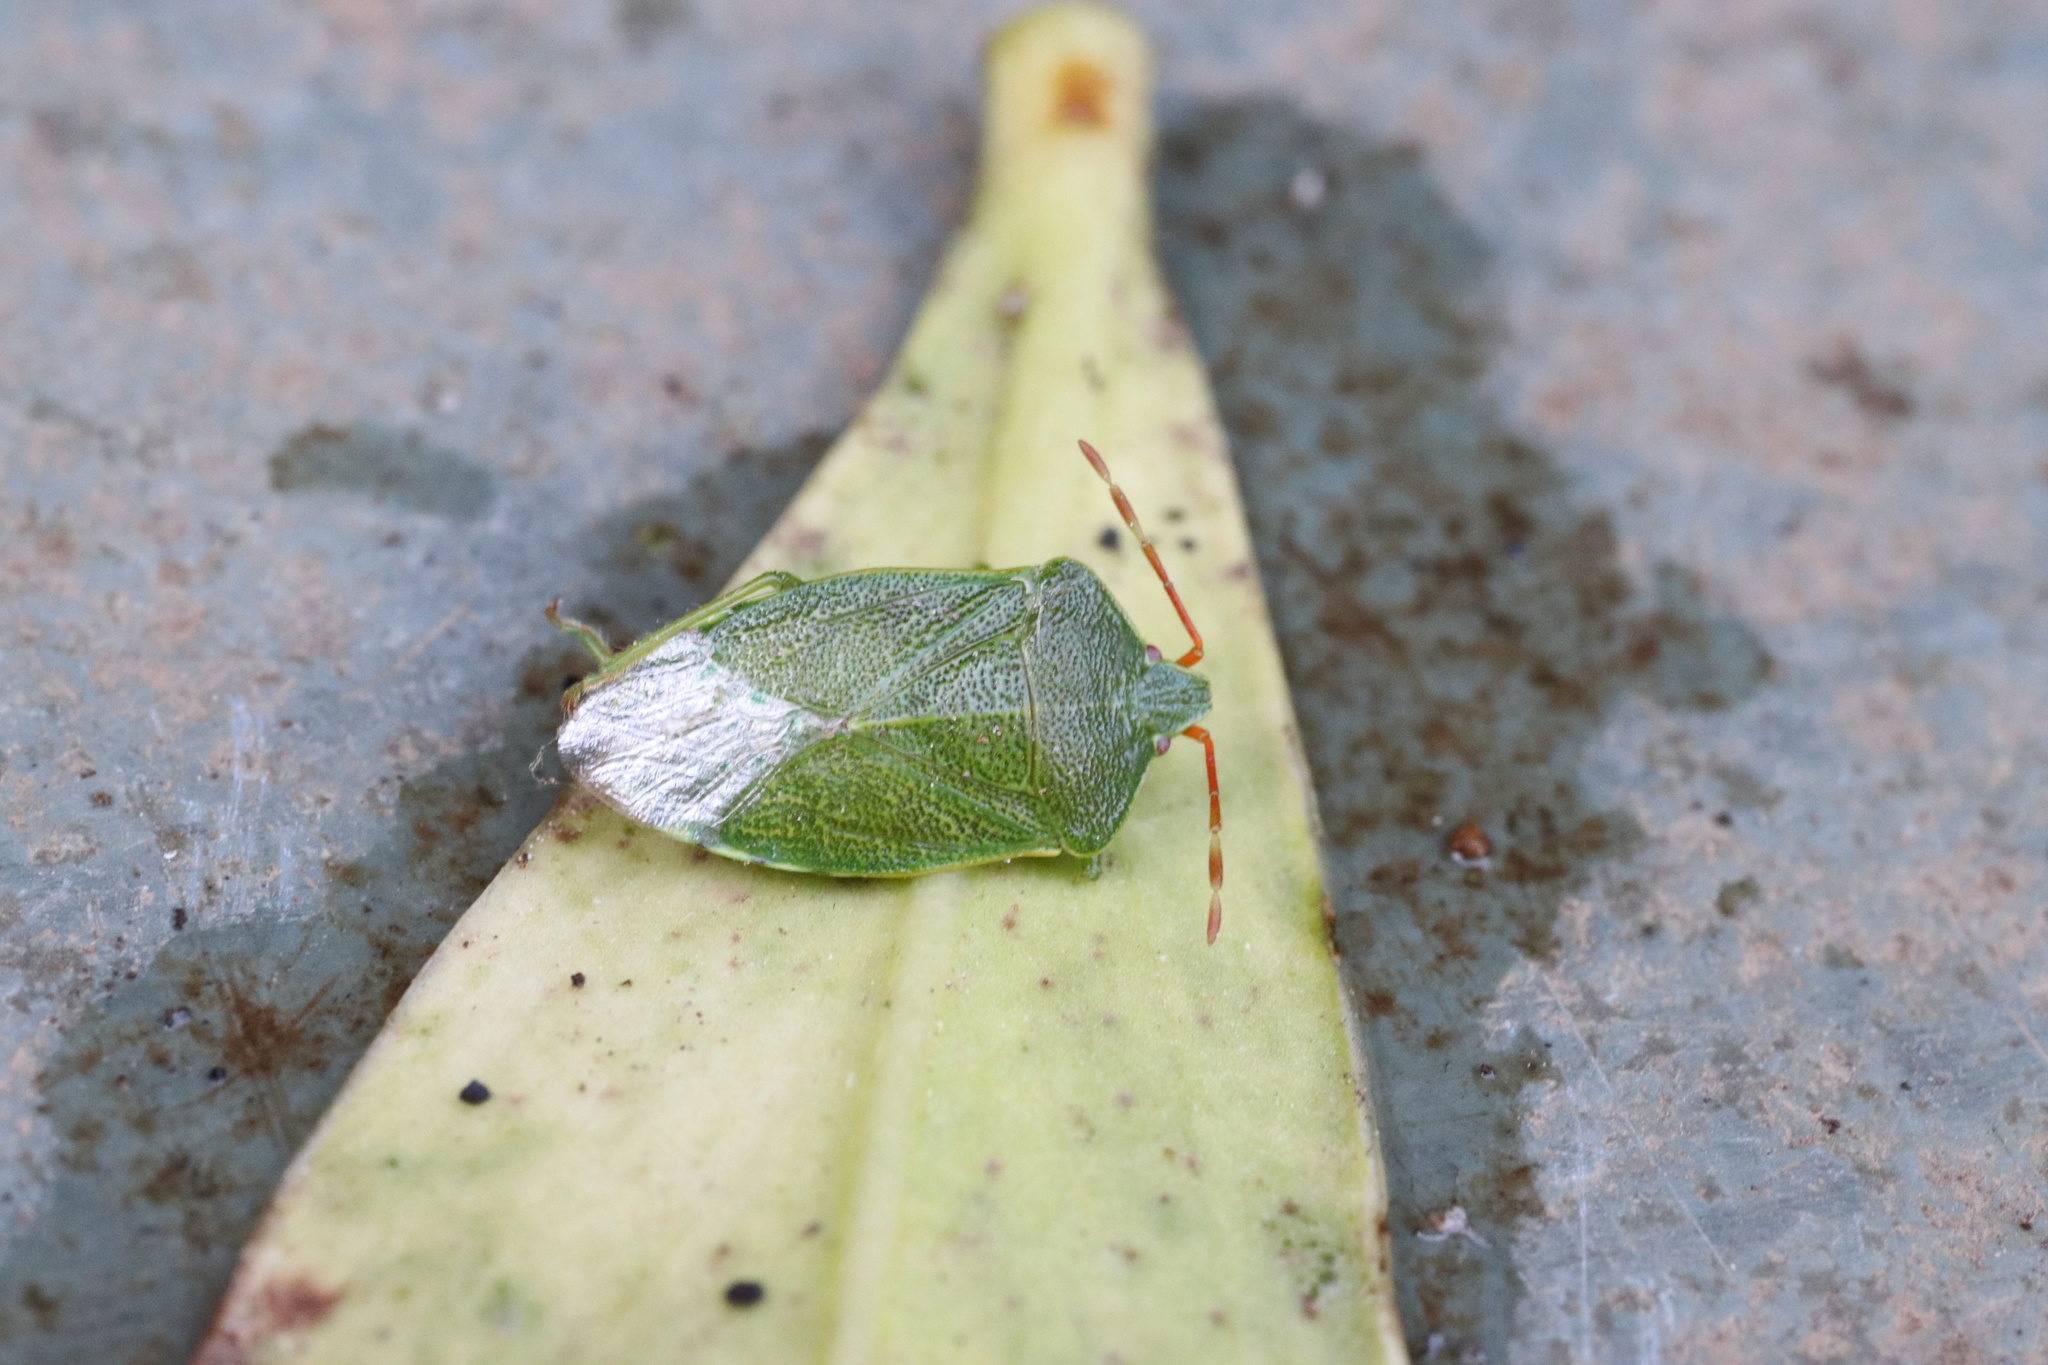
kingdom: Animalia
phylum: Arthropoda
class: Insecta
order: Hemiptera
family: Acanthosomatidae
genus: Sinopla
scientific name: Sinopla perpunctatus
